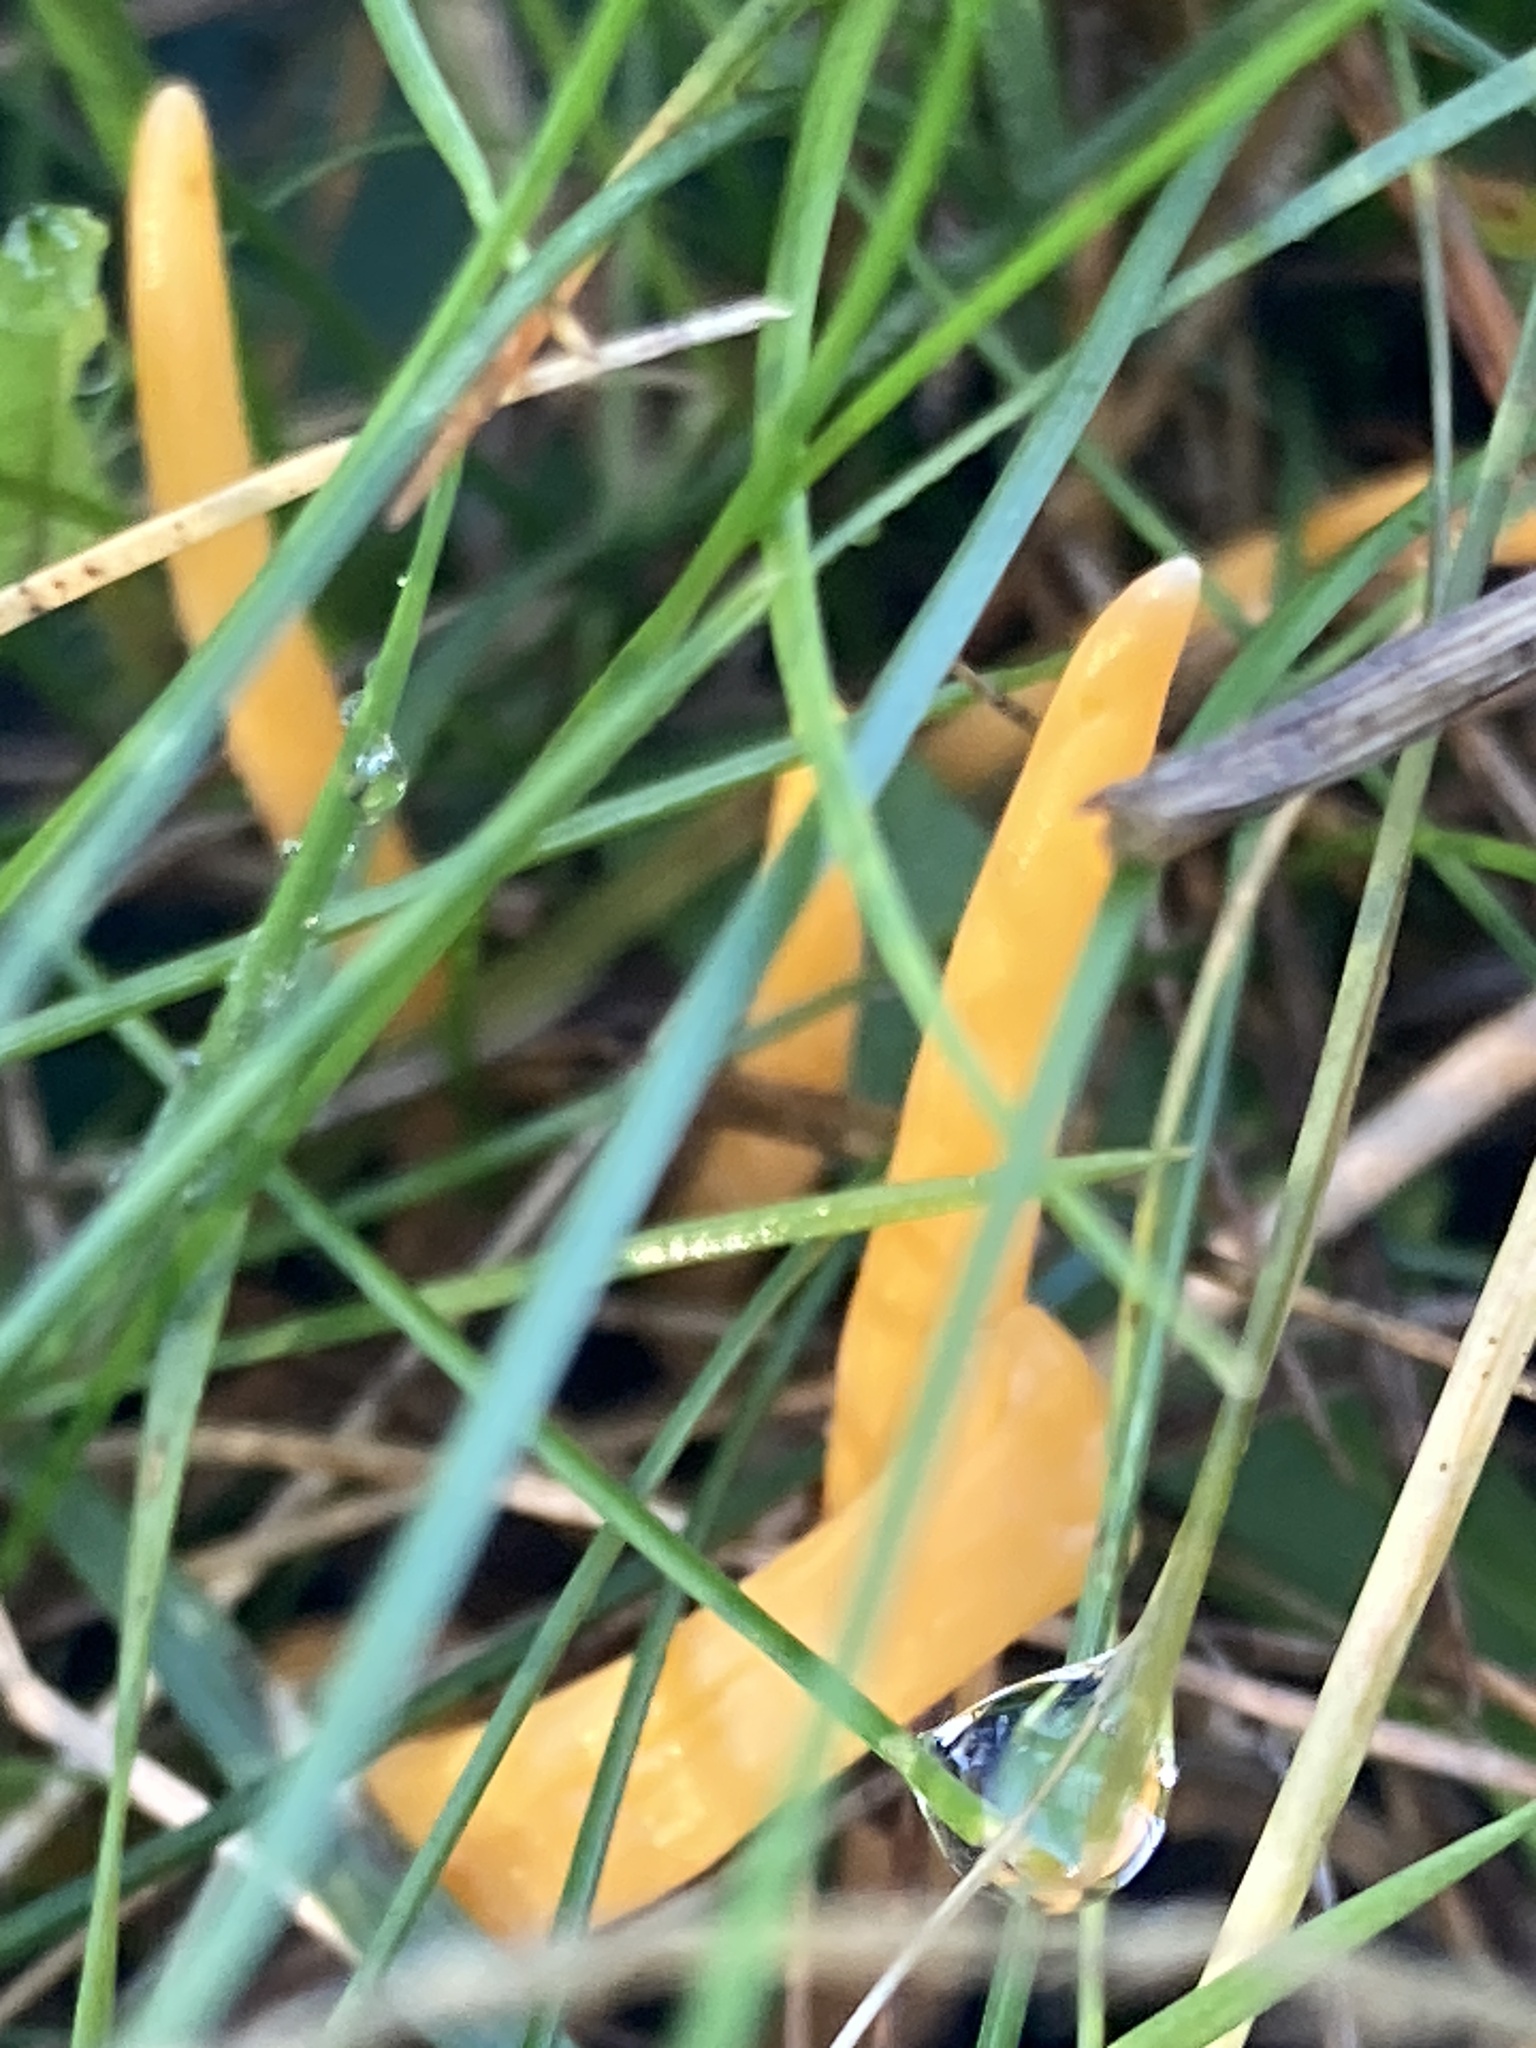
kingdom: Fungi
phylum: Basidiomycota
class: Agaricomycetes
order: Agaricales
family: Clavariaceae
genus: Clavulinopsis
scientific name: Clavulinopsis luteoalba
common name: Apricot club
